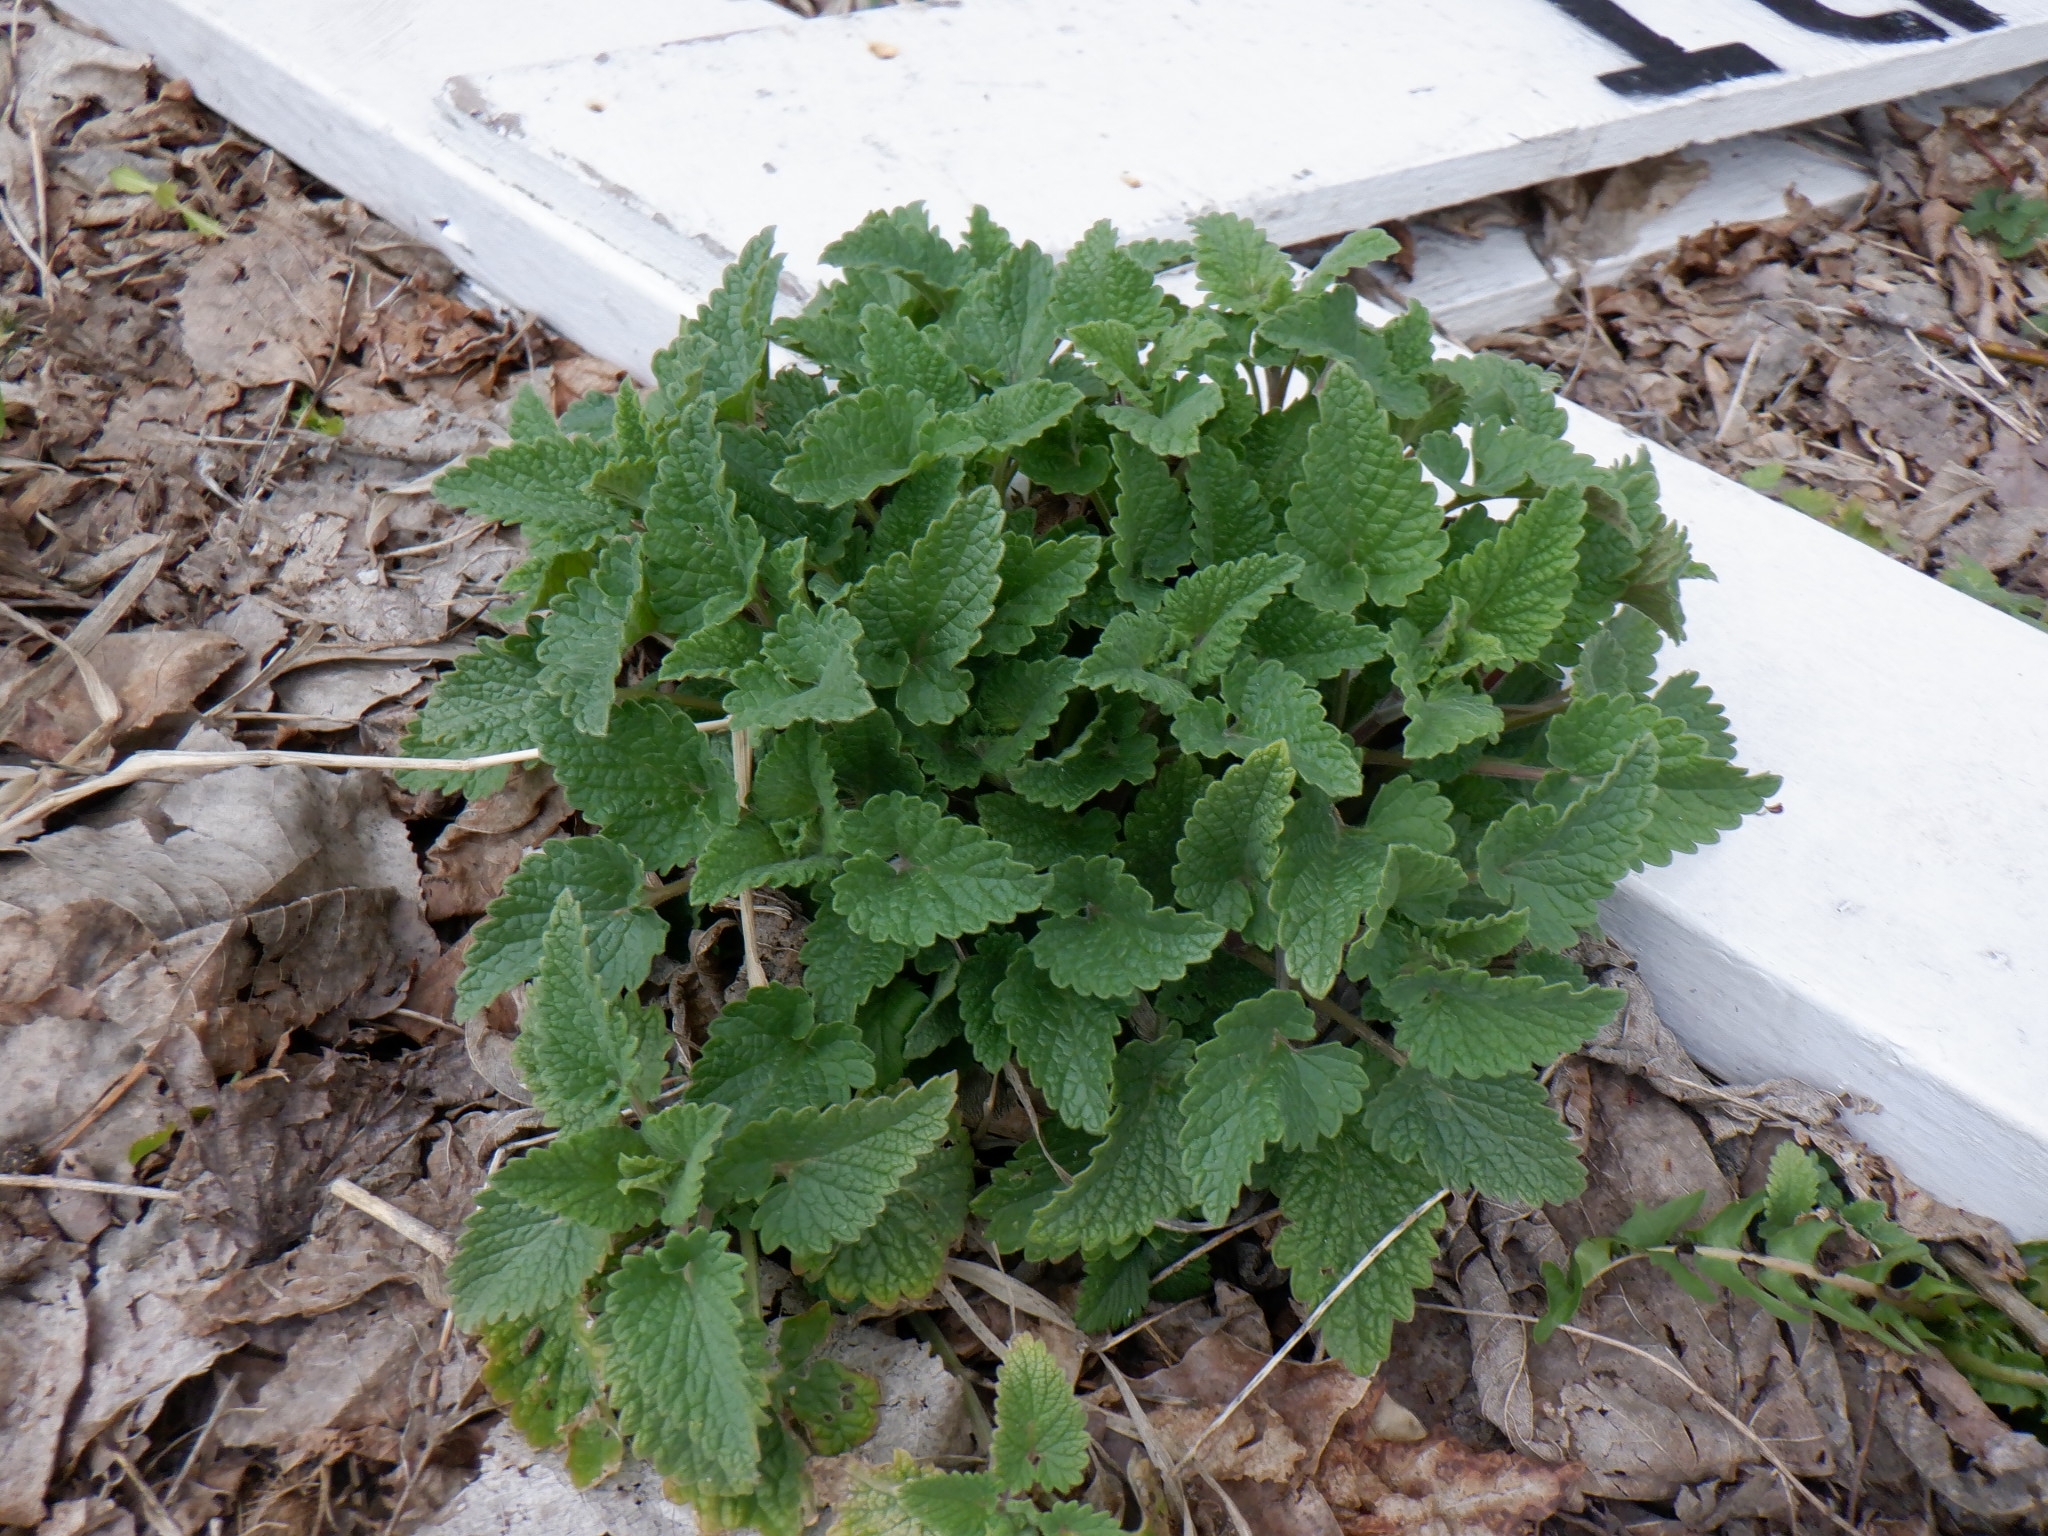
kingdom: Plantae
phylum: Tracheophyta
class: Magnoliopsida
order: Lamiales
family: Lamiaceae
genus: Nepeta
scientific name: Nepeta cataria
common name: Catnip
